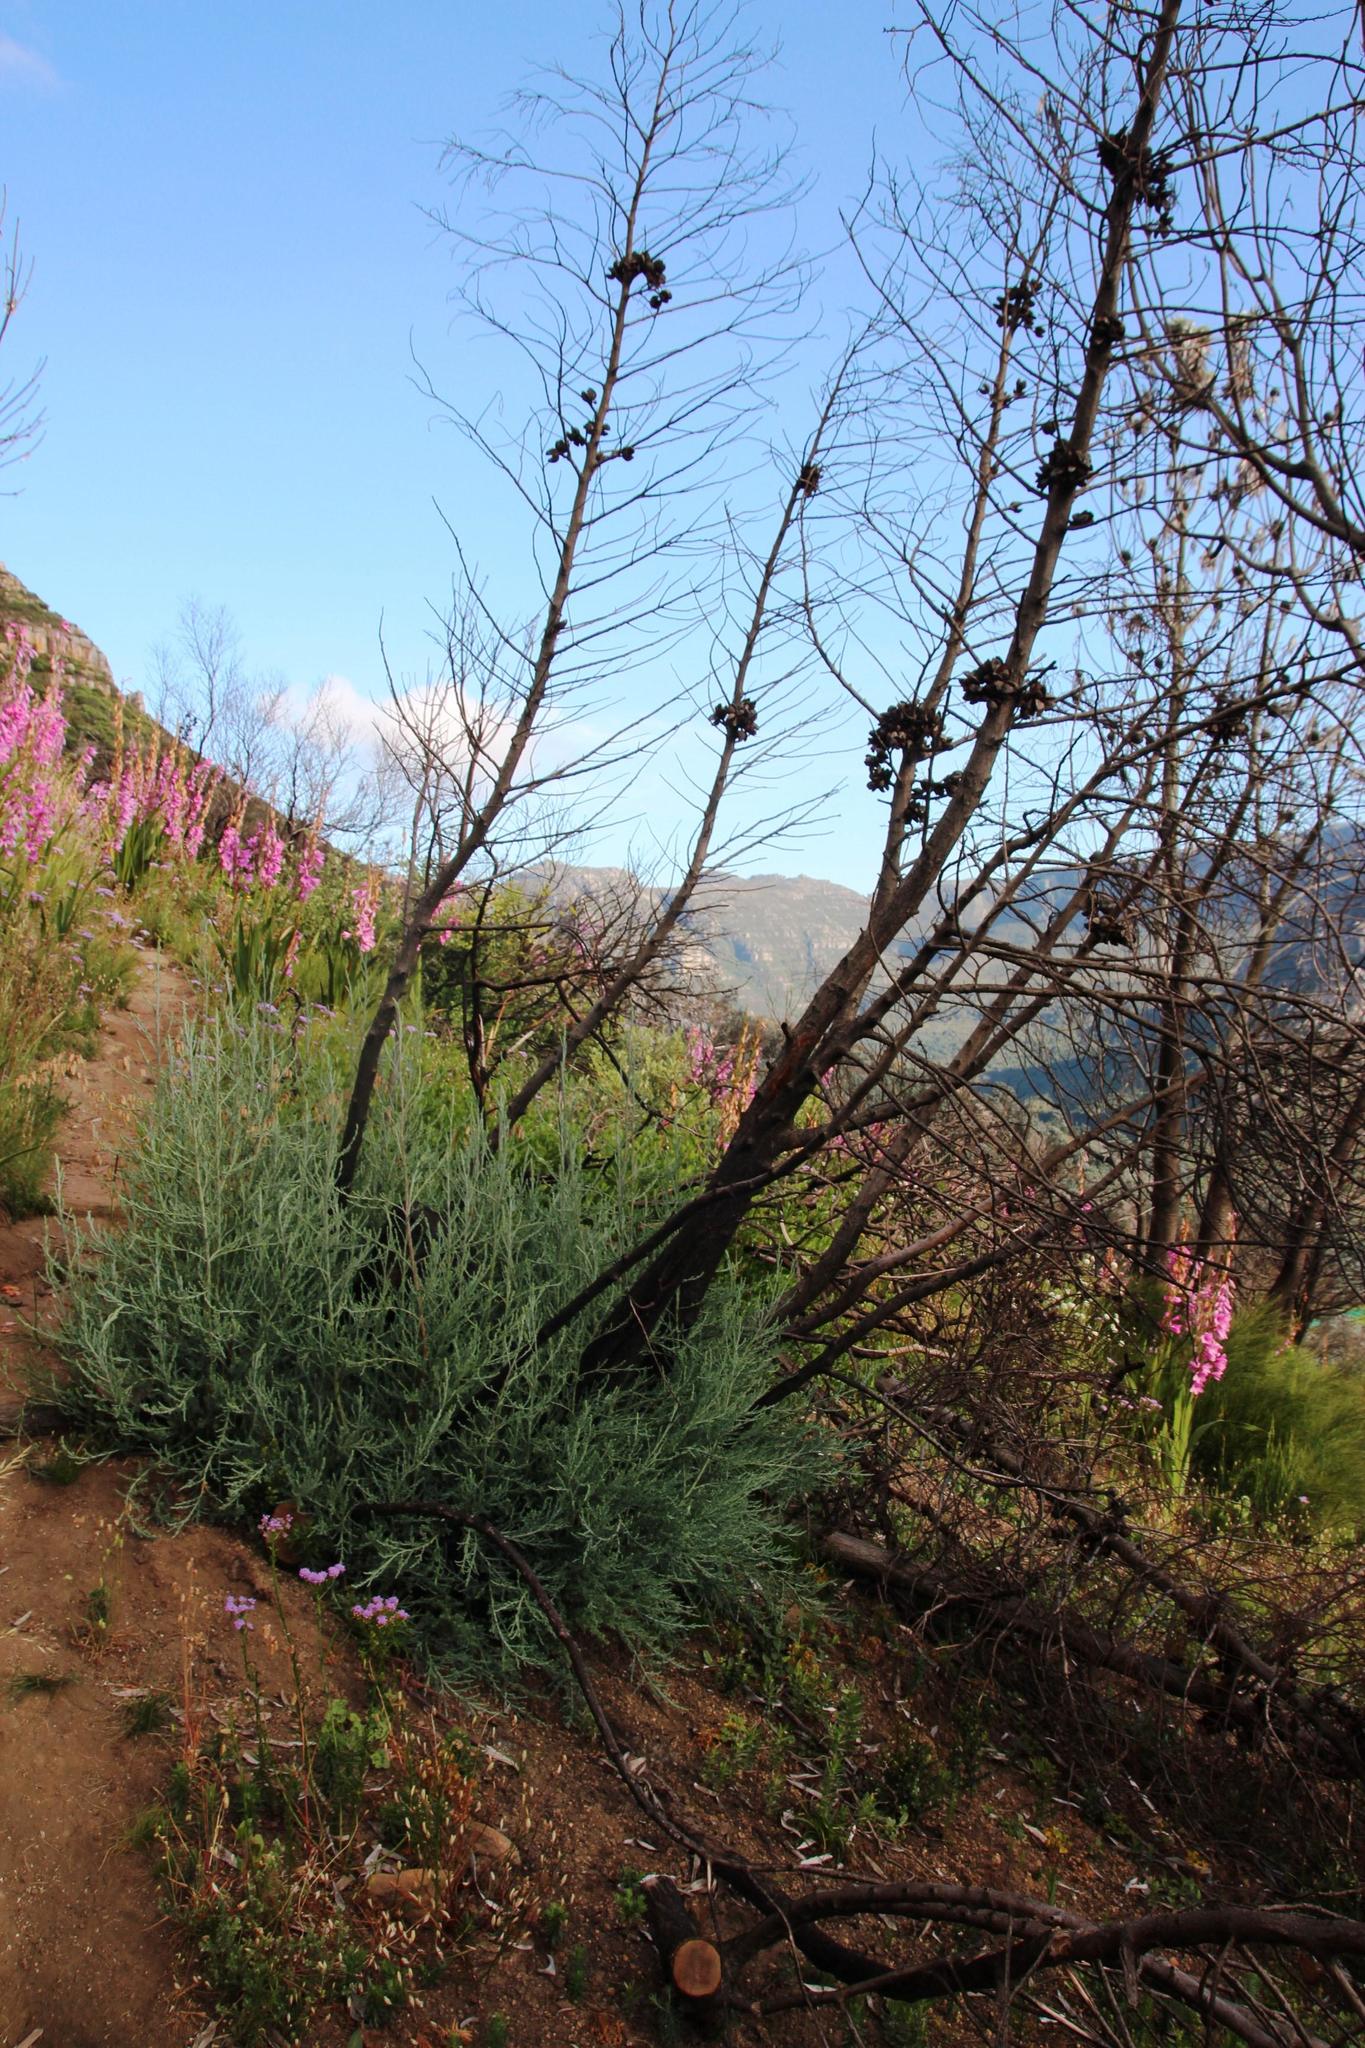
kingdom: Plantae
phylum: Tracheophyta
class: Pinopsida
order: Pinales
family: Cupressaceae
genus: Widdringtonia
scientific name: Widdringtonia nodiflora
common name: Cape cypress
